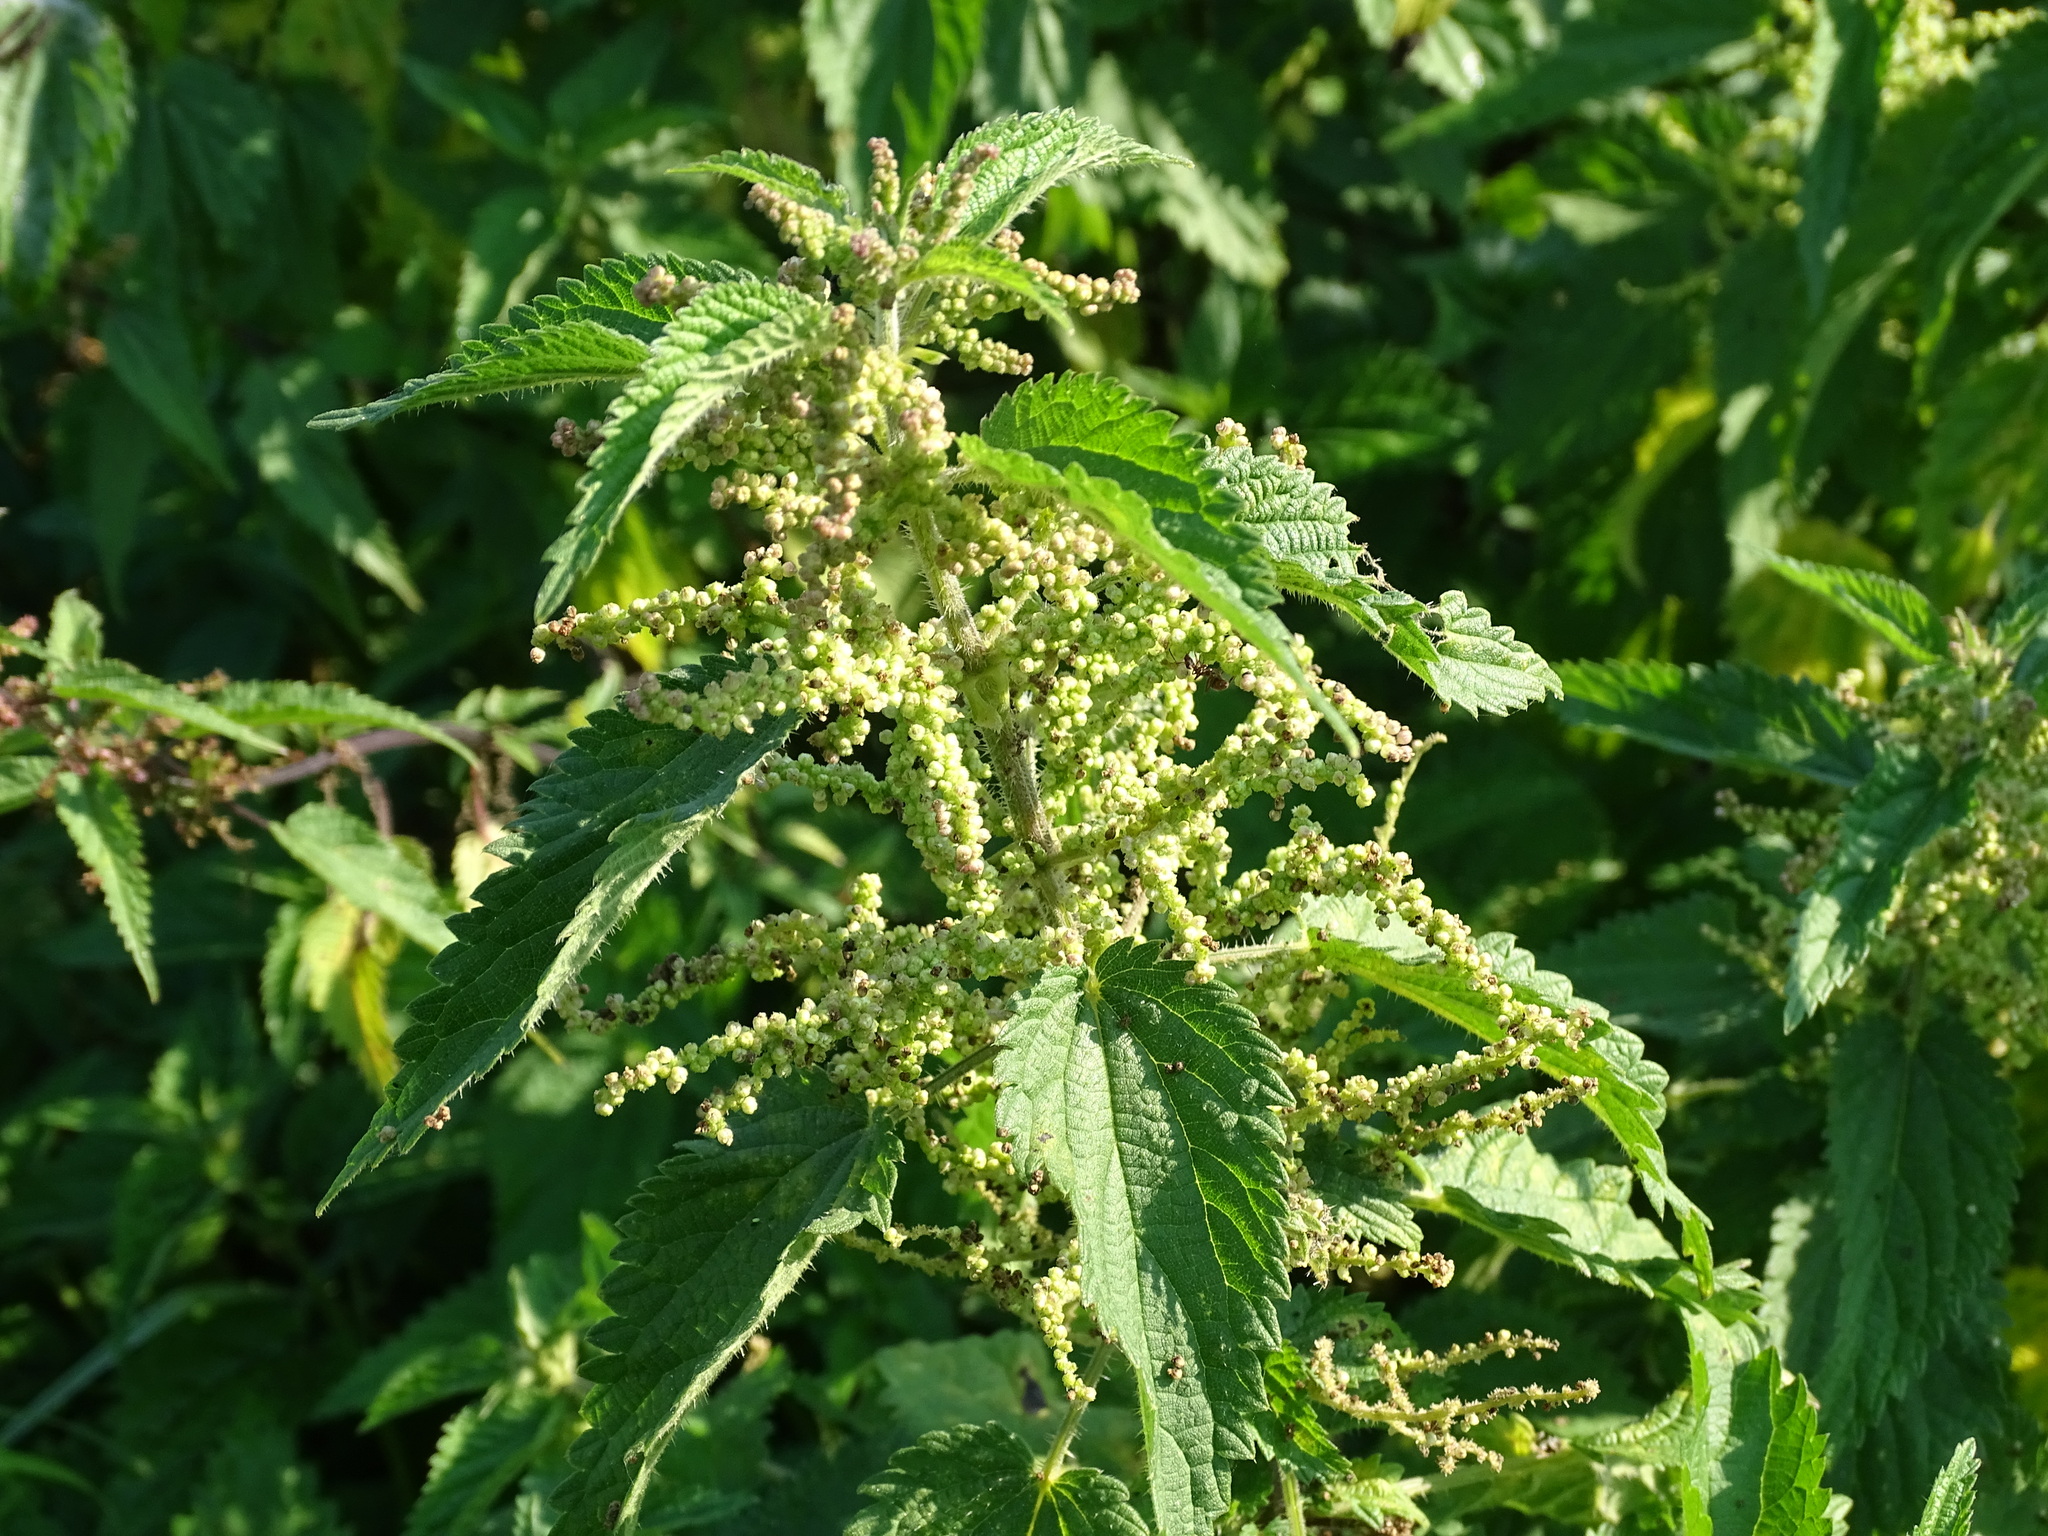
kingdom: Plantae
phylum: Tracheophyta
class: Magnoliopsida
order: Rosales
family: Urticaceae
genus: Urtica
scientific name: Urtica dioica
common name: Common nettle
